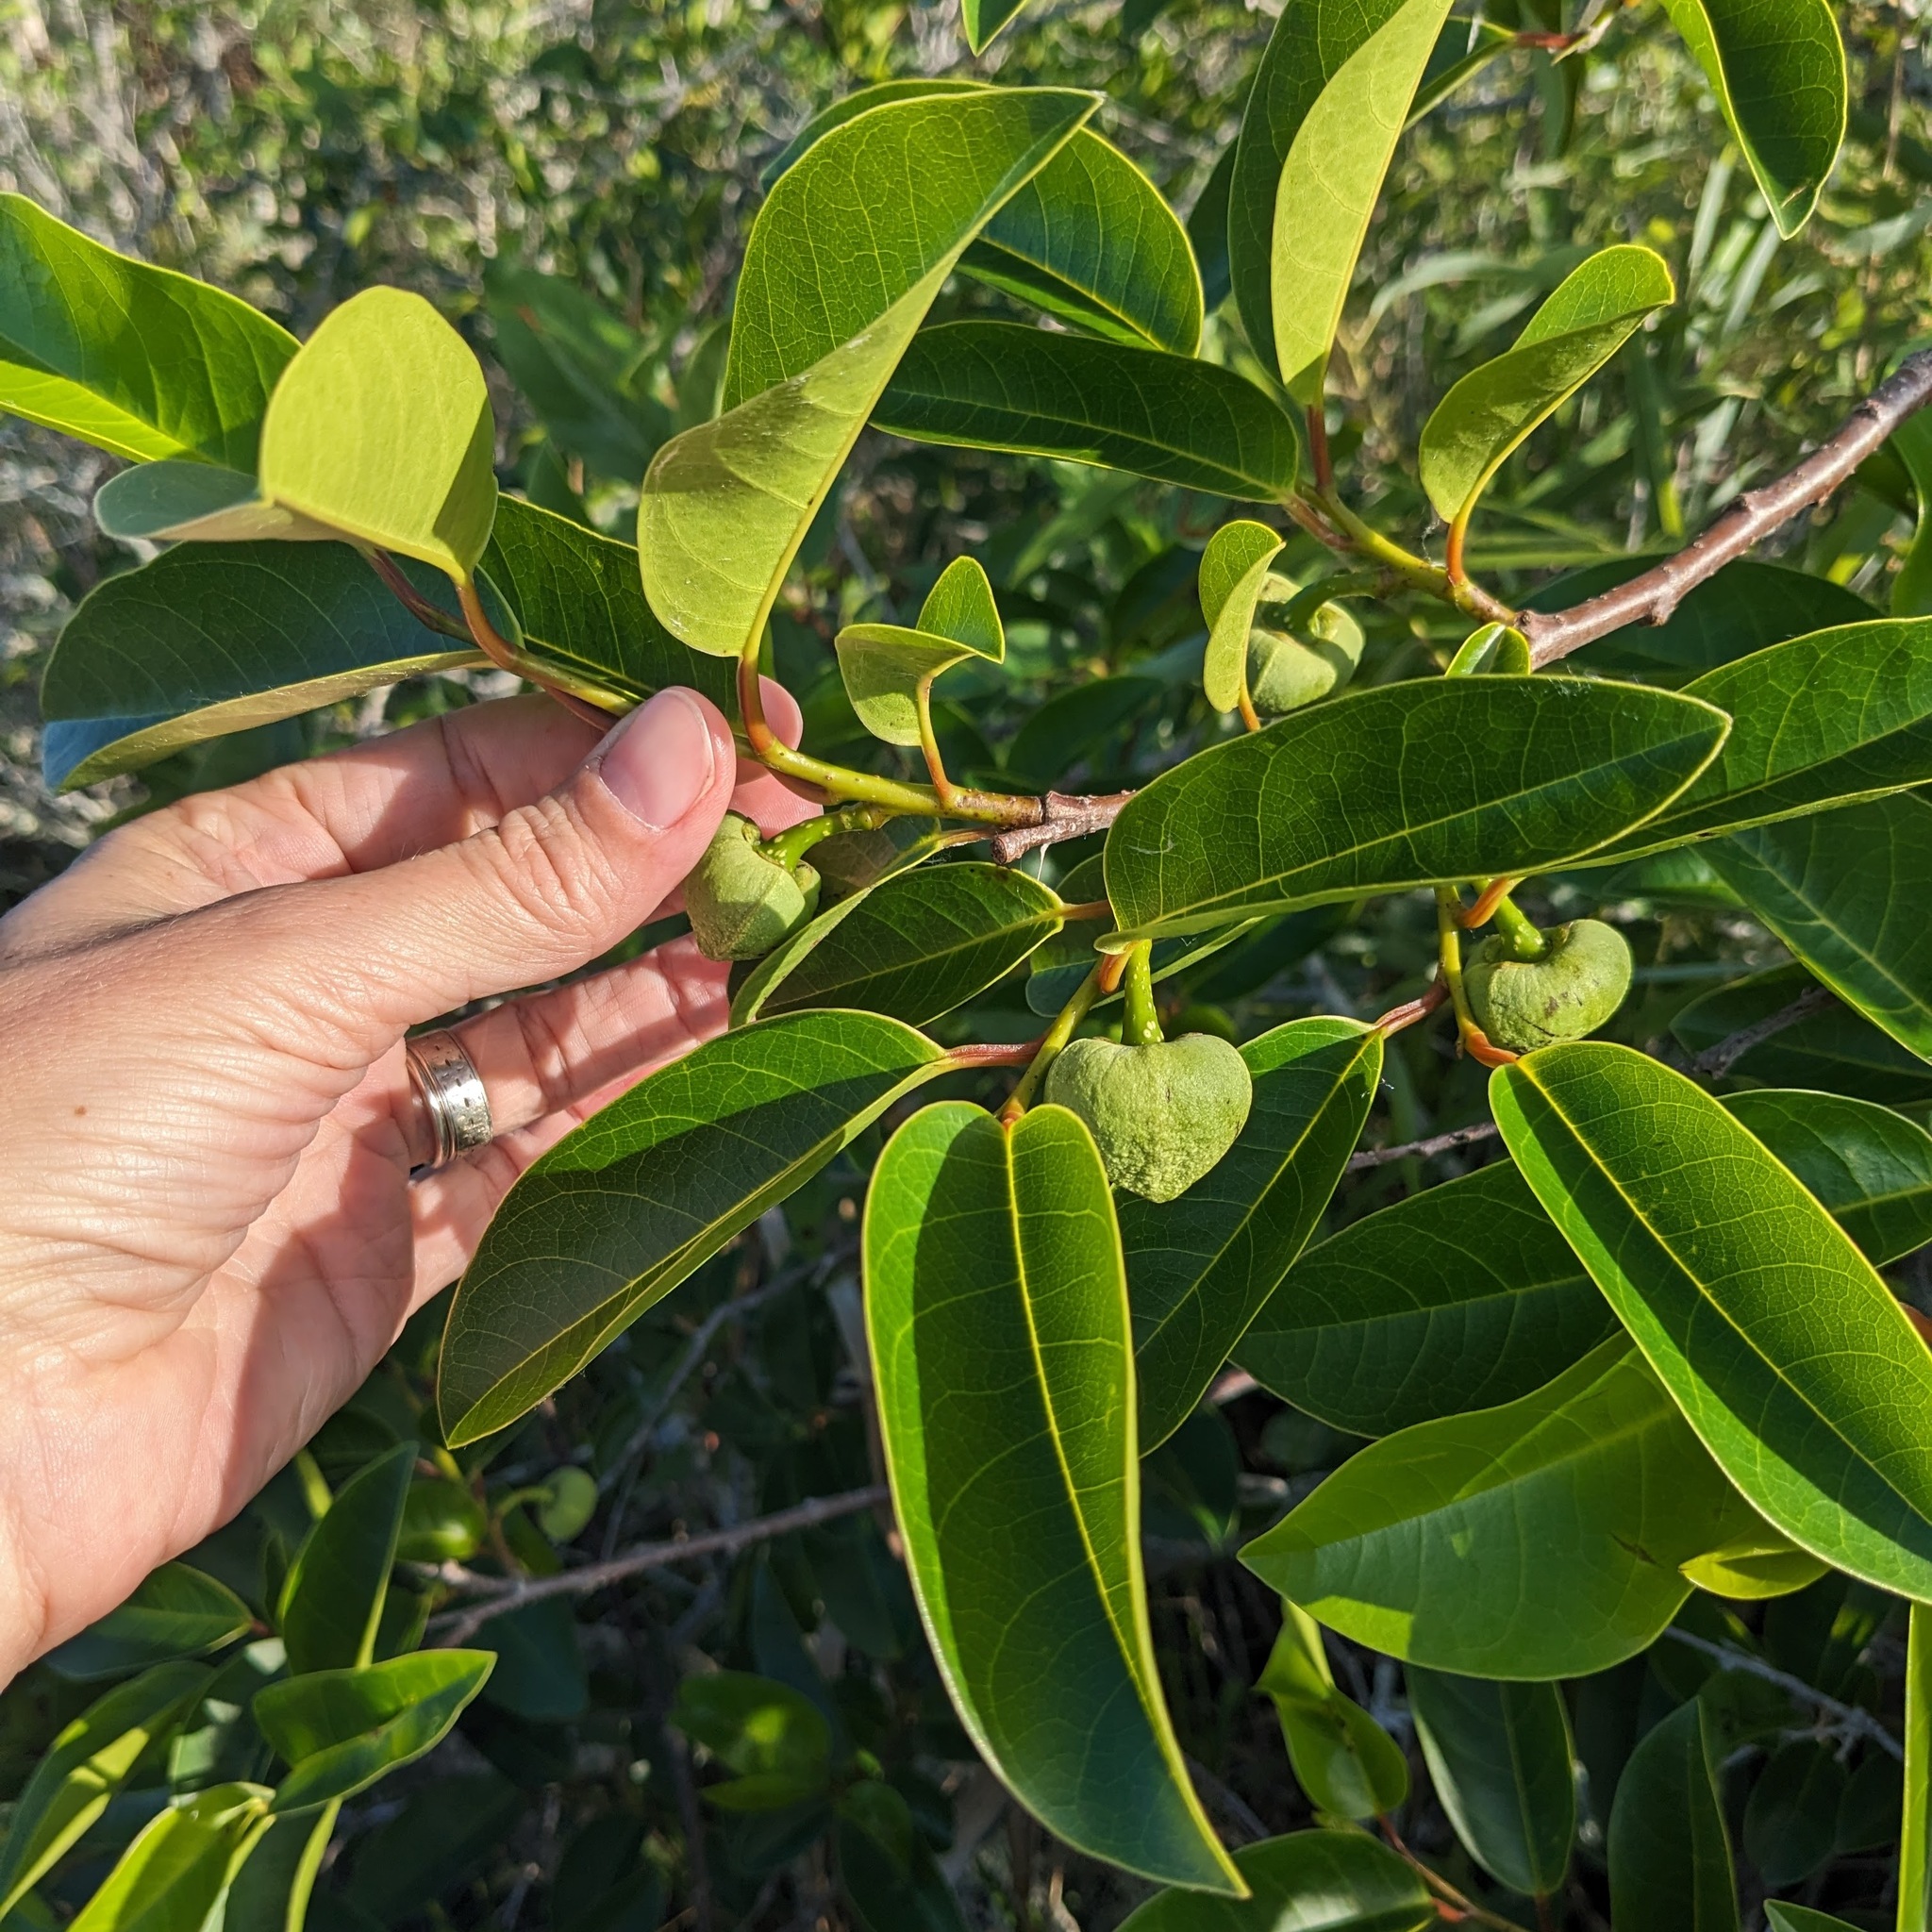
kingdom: Plantae
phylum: Tracheophyta
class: Magnoliopsida
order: Magnoliales
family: Annonaceae
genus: Annona
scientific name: Annona glabra
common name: Monkey apple
